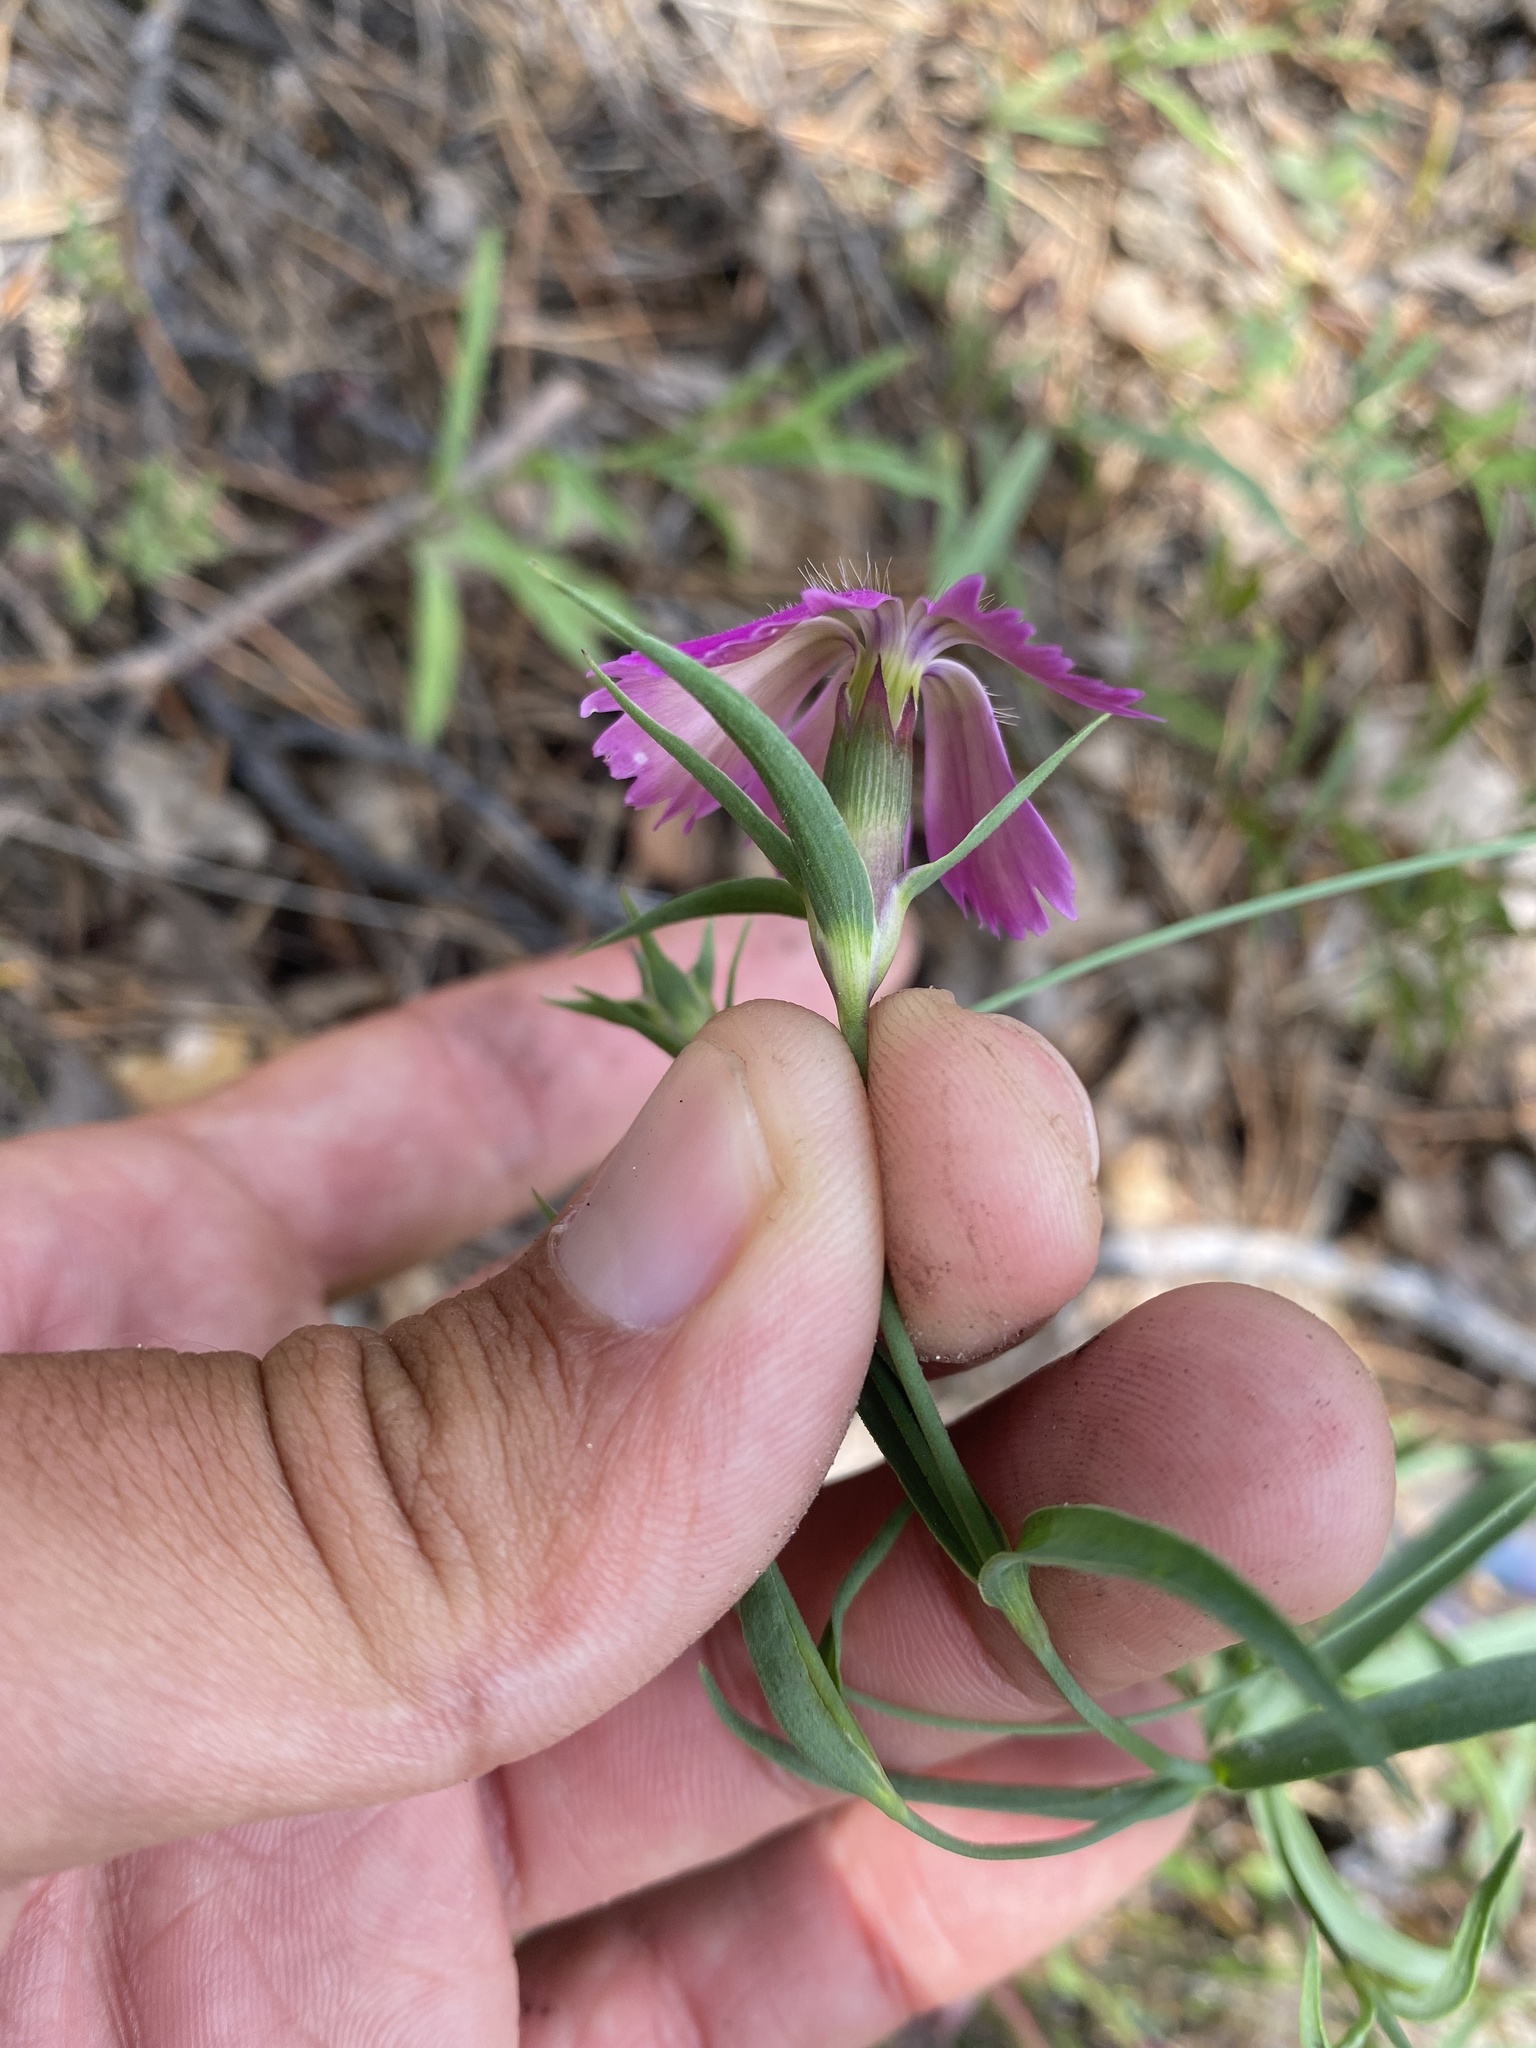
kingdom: Plantae
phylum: Tracheophyta
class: Magnoliopsida
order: Caryophyllales
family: Caryophyllaceae
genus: Dianthus
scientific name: Dianthus chinensis
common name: Rainbow pink
